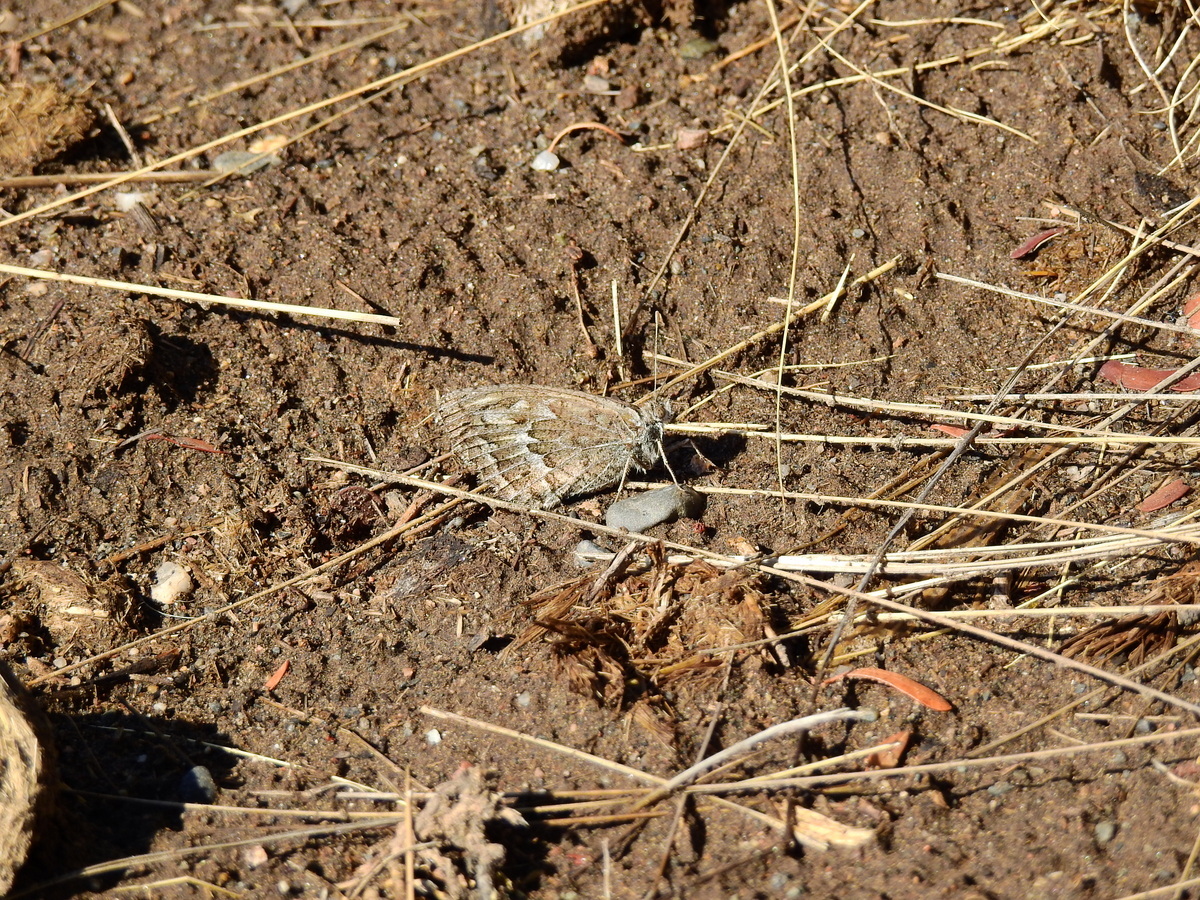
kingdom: Animalia
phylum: Arthropoda
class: Insecta
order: Lepidoptera
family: Nymphalidae
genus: Argyrophorus
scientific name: Argyrophorus
